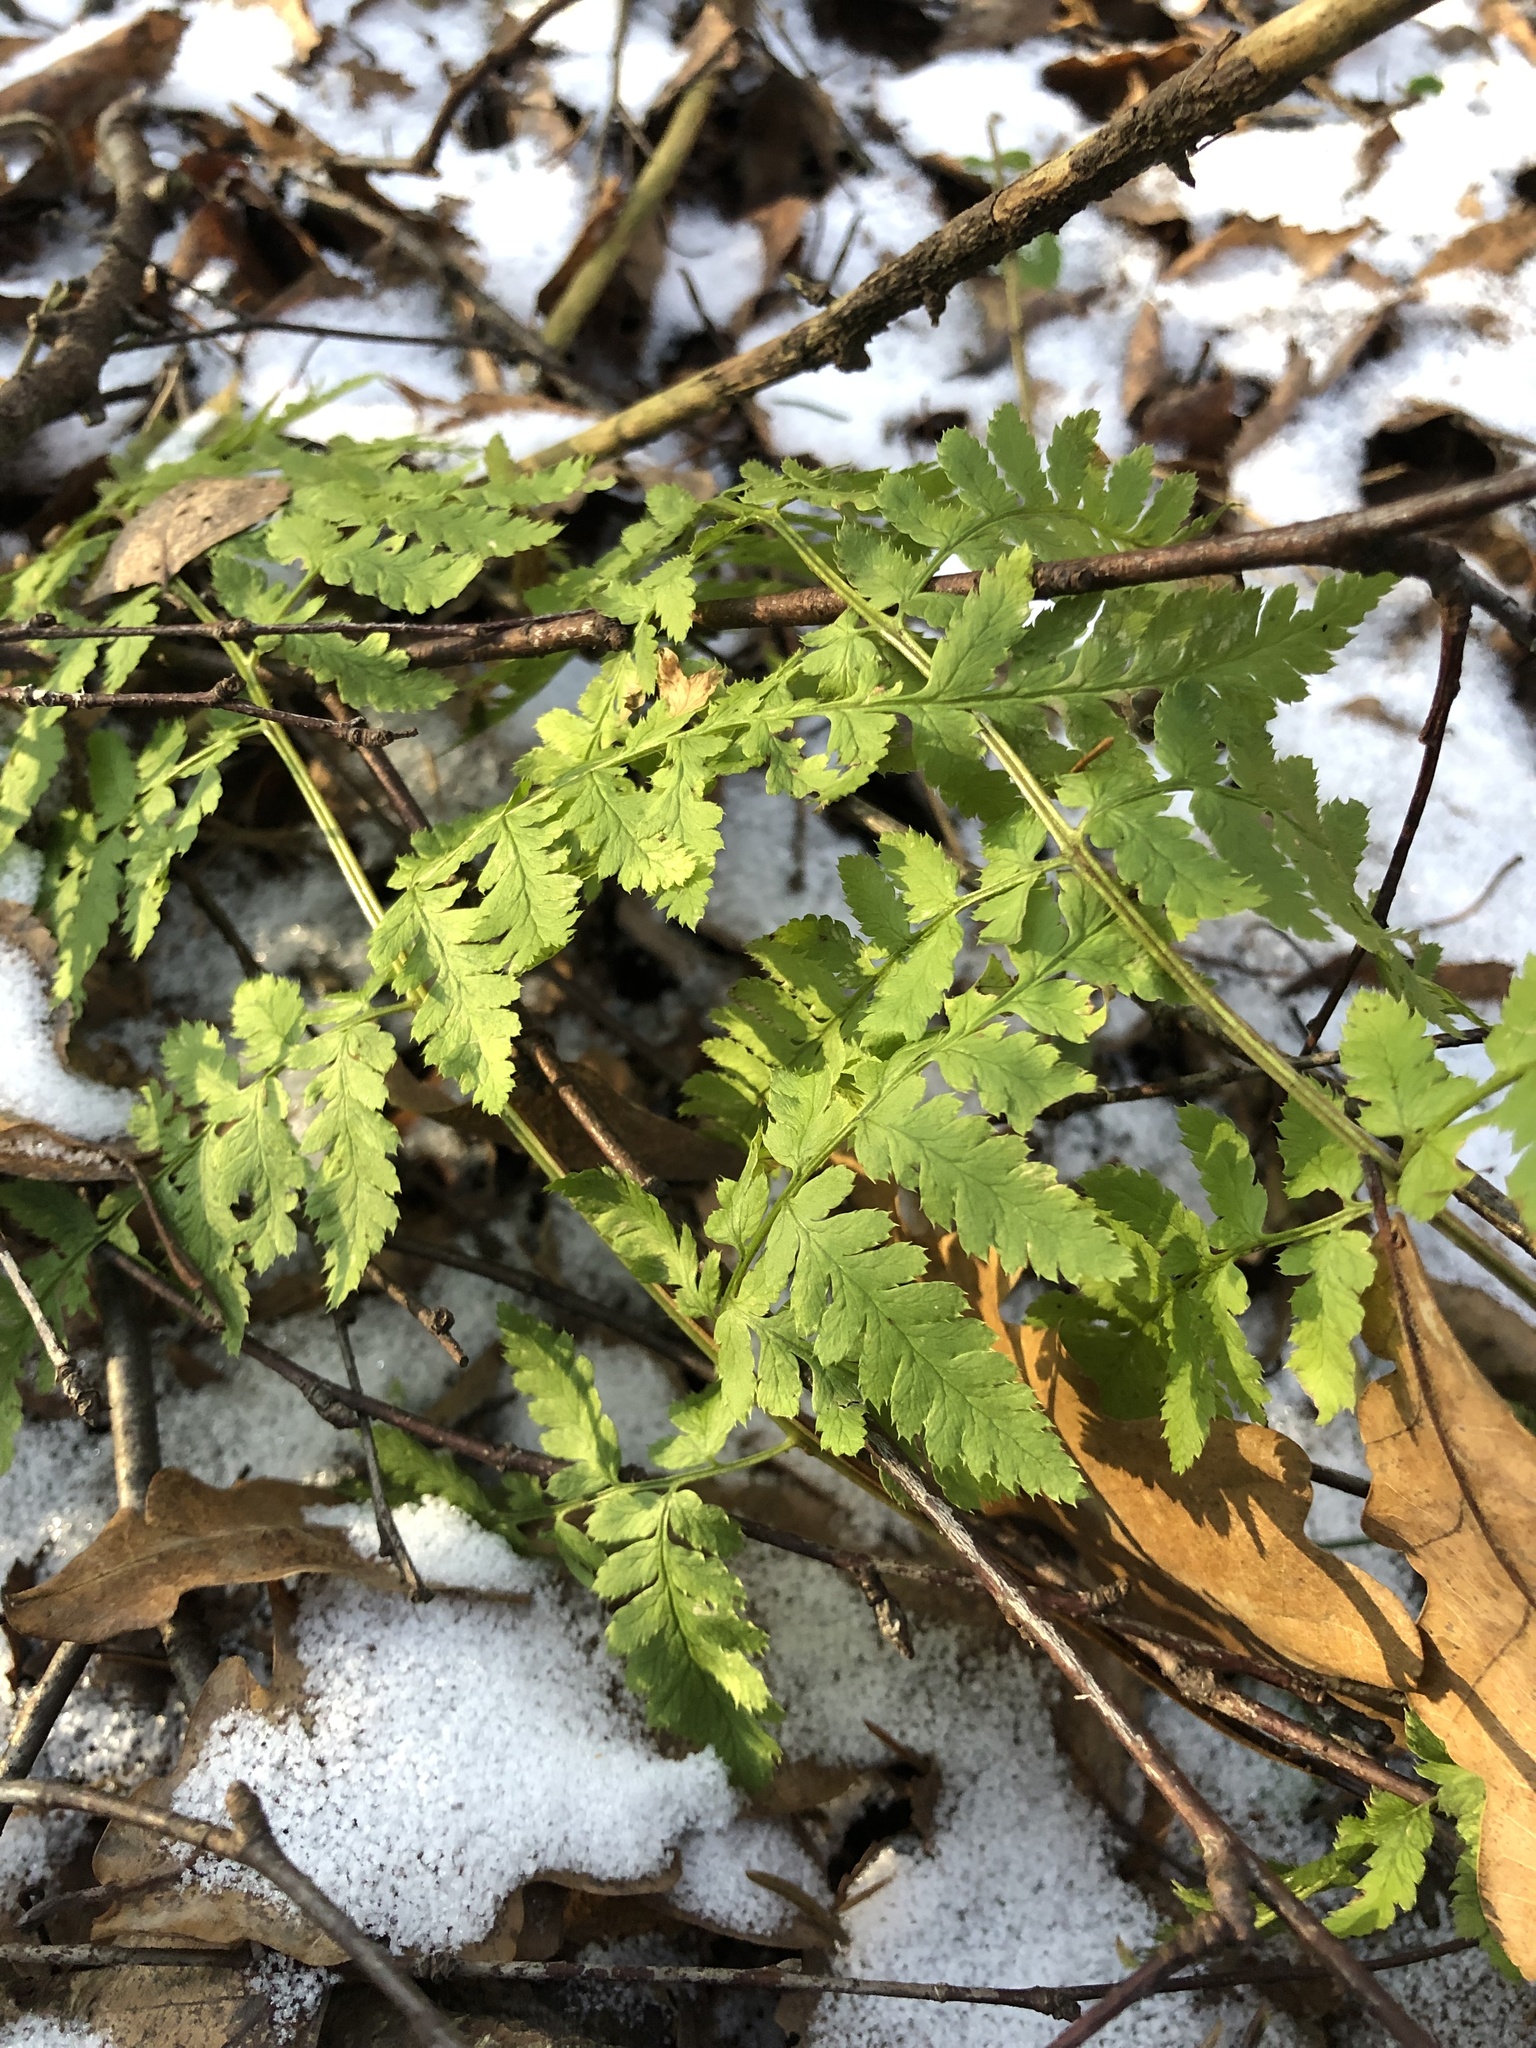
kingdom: Plantae
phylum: Tracheophyta
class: Polypodiopsida
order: Polypodiales
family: Dryopteridaceae
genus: Dryopteris
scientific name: Dryopteris carthusiana
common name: Narrow buckler-fern
